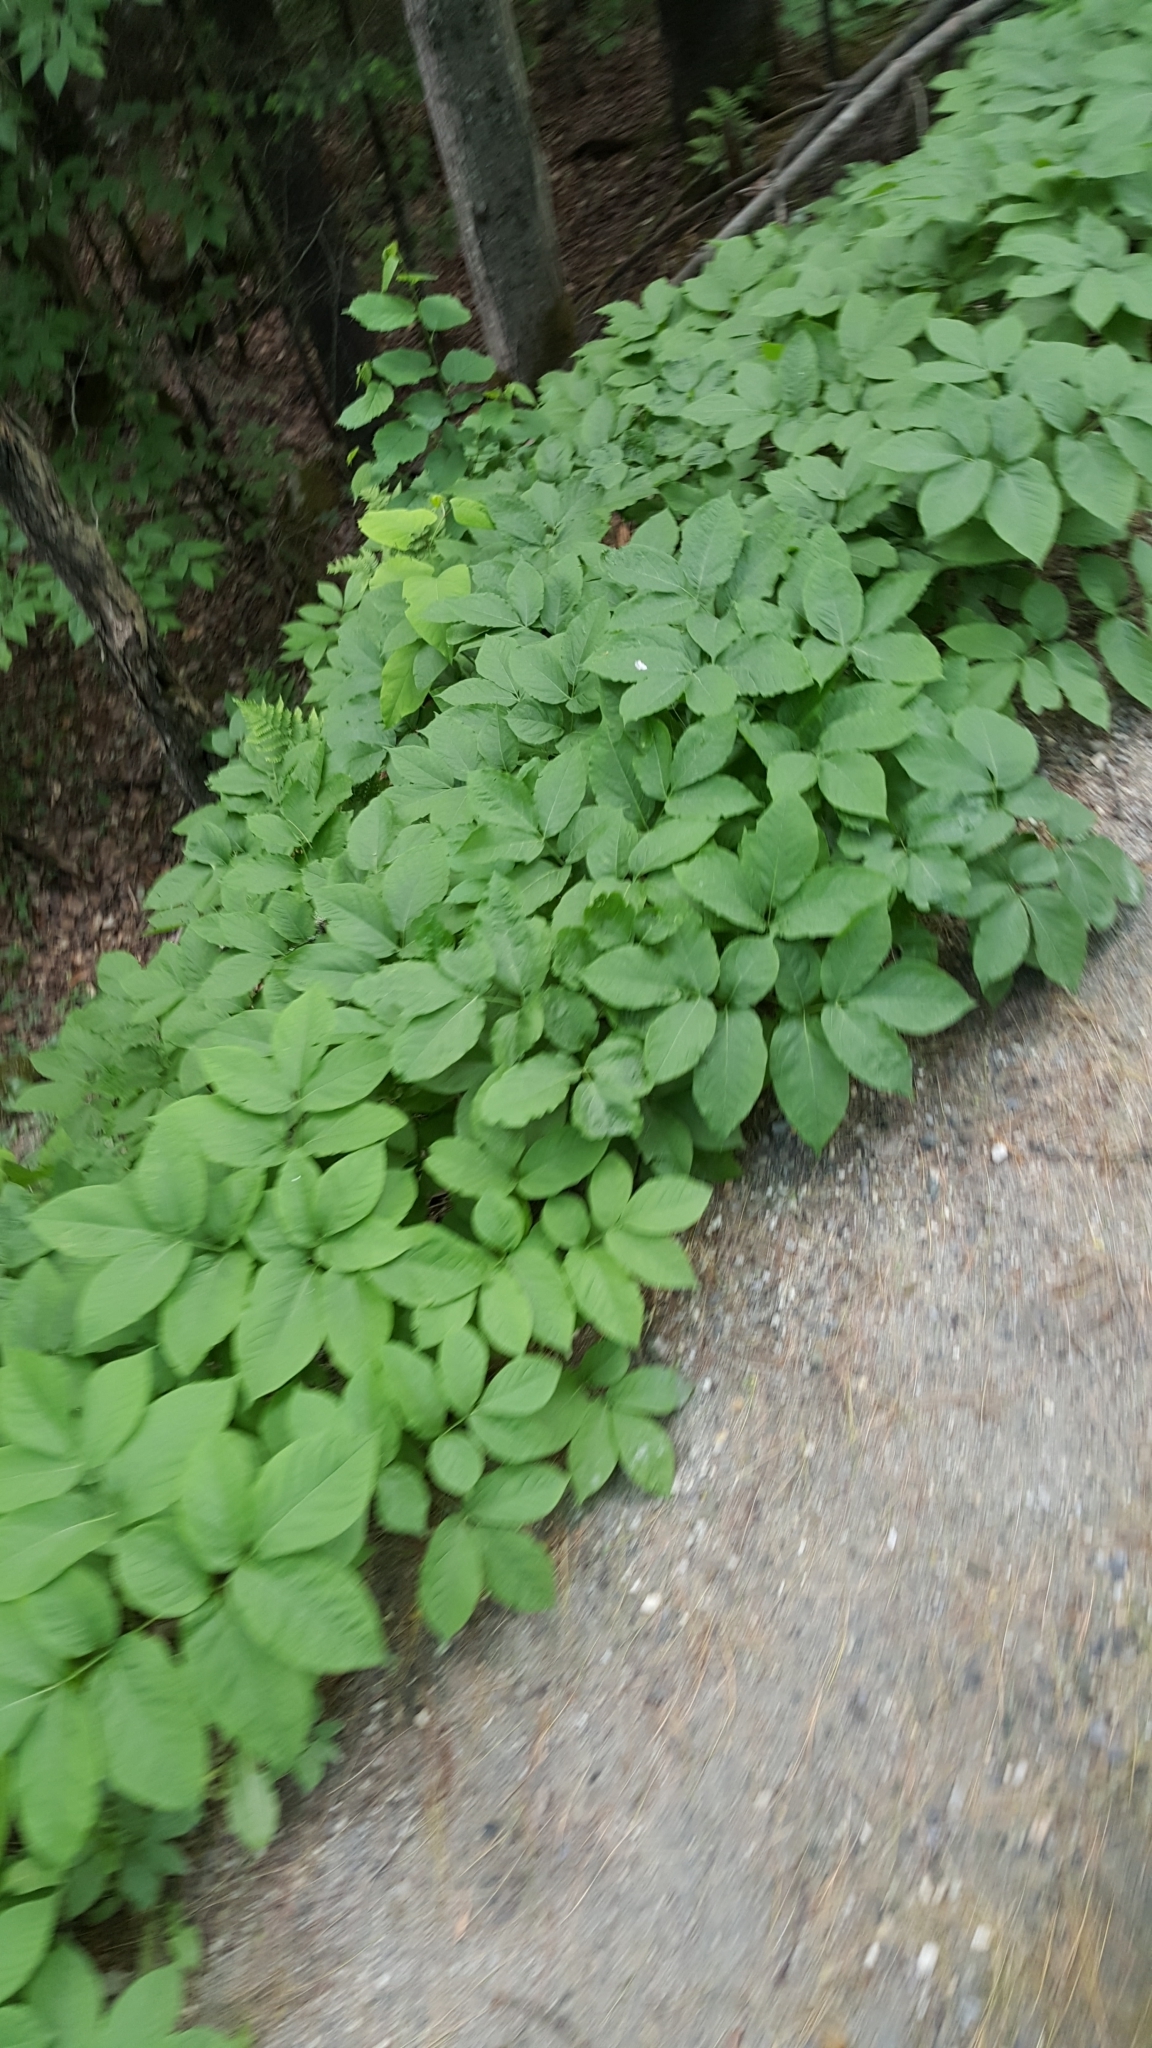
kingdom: Plantae
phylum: Tracheophyta
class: Magnoliopsida
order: Apiales
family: Araliaceae
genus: Aralia
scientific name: Aralia nudicaulis
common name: Wild sarsaparilla
